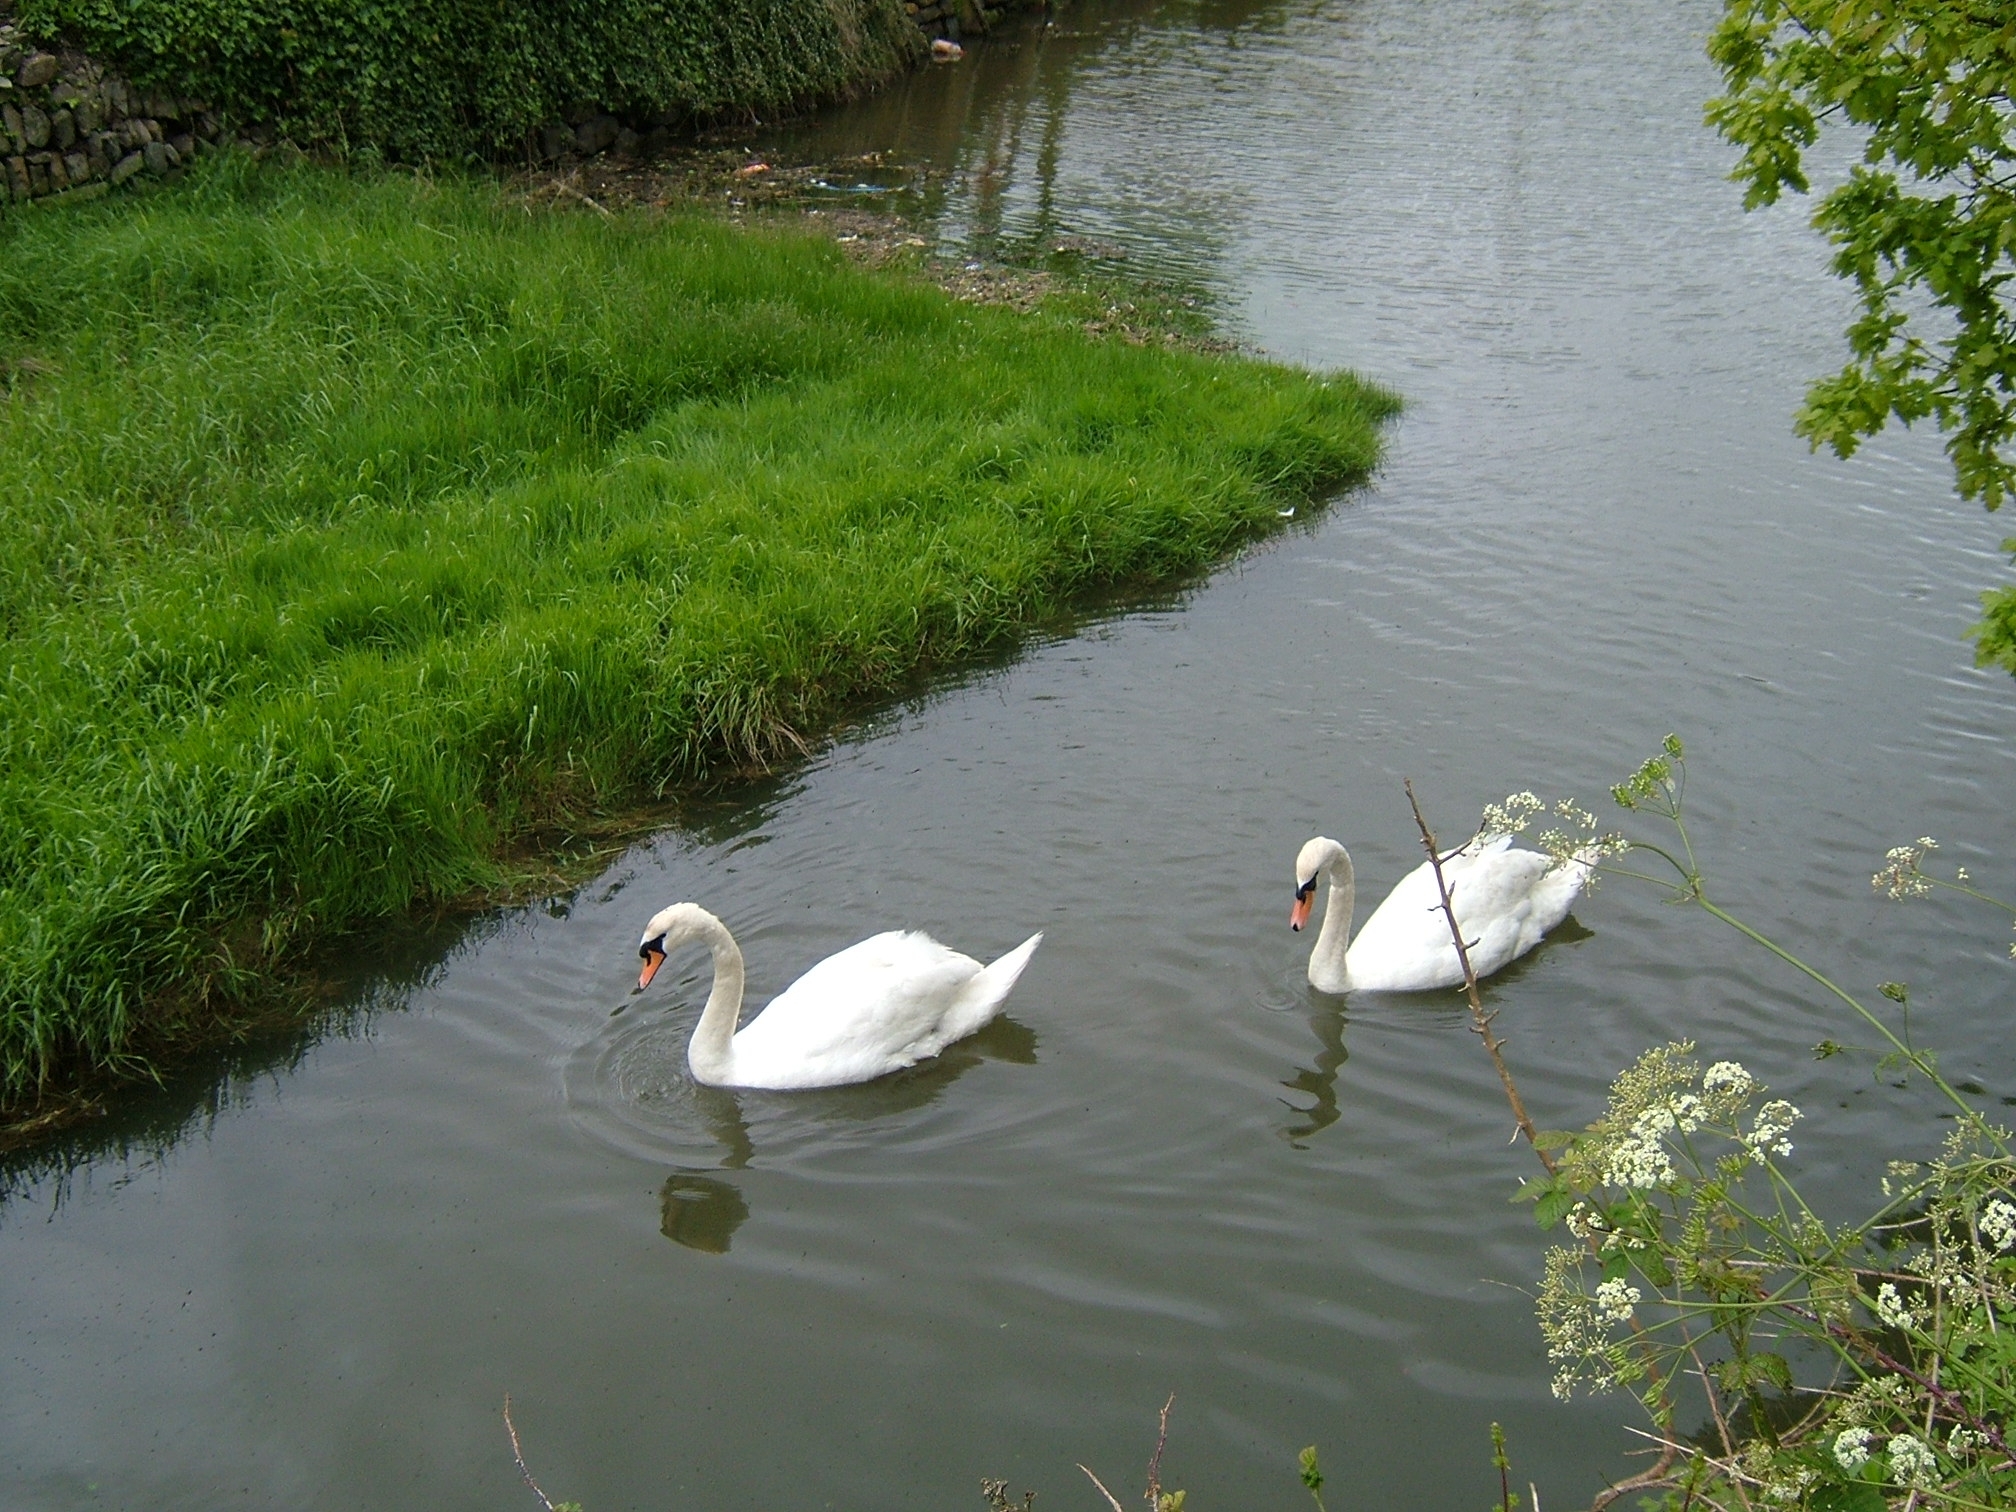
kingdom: Animalia
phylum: Chordata
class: Aves
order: Anseriformes
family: Anatidae
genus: Cygnus
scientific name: Cygnus olor
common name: Mute swan
